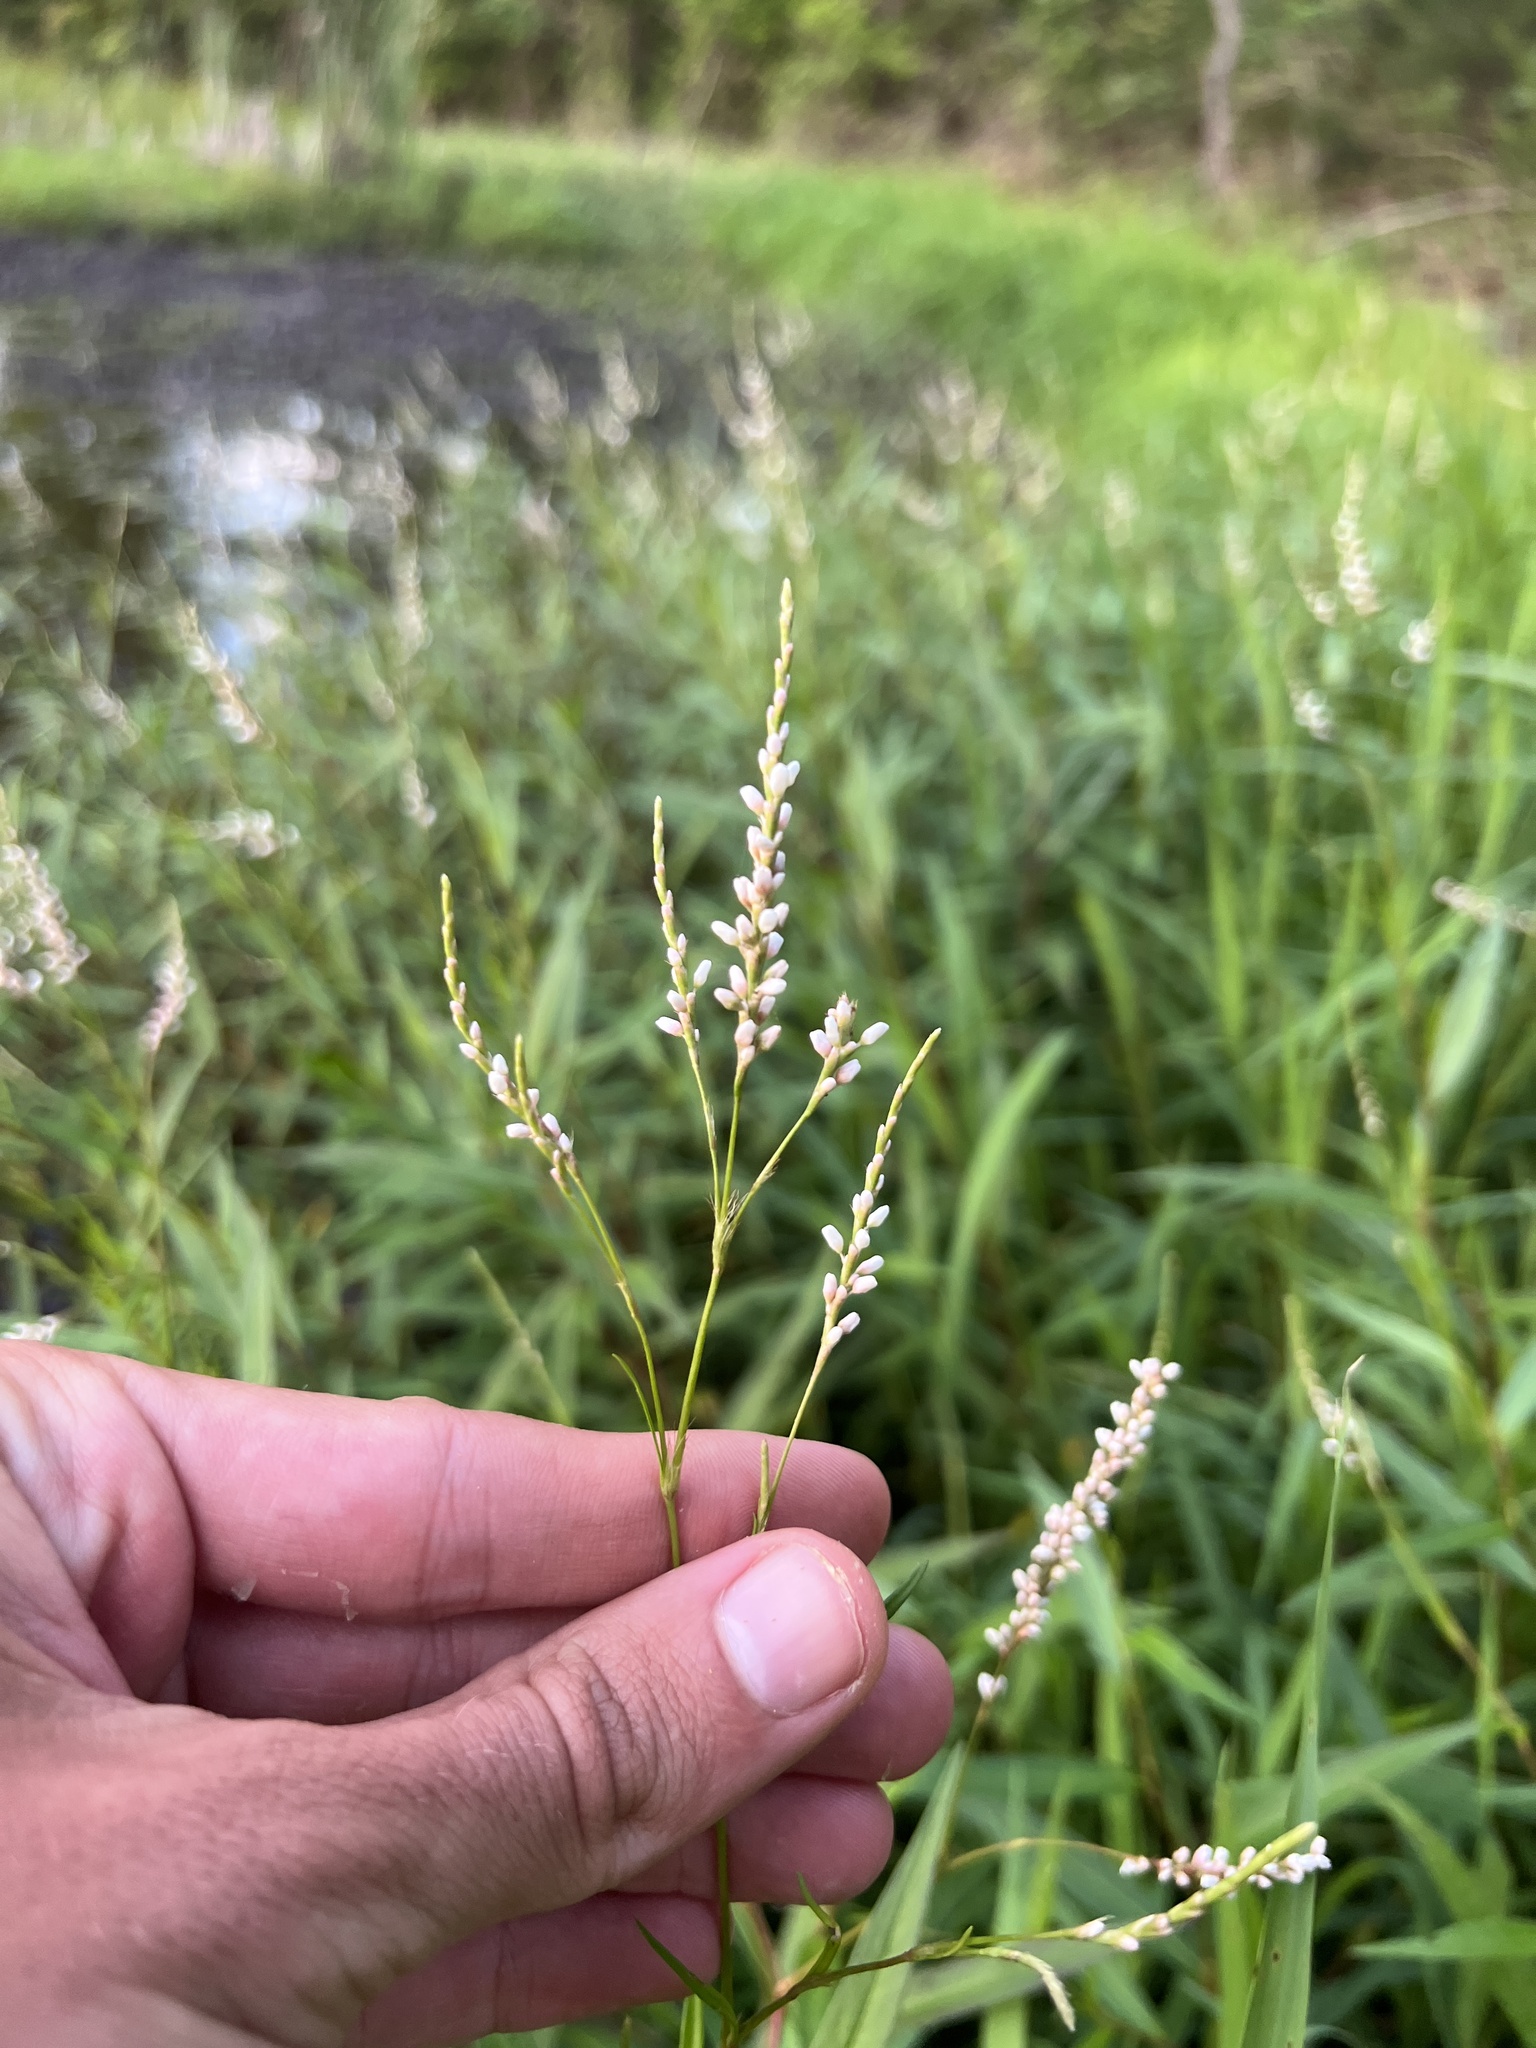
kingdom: Plantae
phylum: Tracheophyta
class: Magnoliopsida
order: Caryophyllales
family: Polygonaceae
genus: Persicaria
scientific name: Persicaria hydropiperoides
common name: Swamp smartweed
